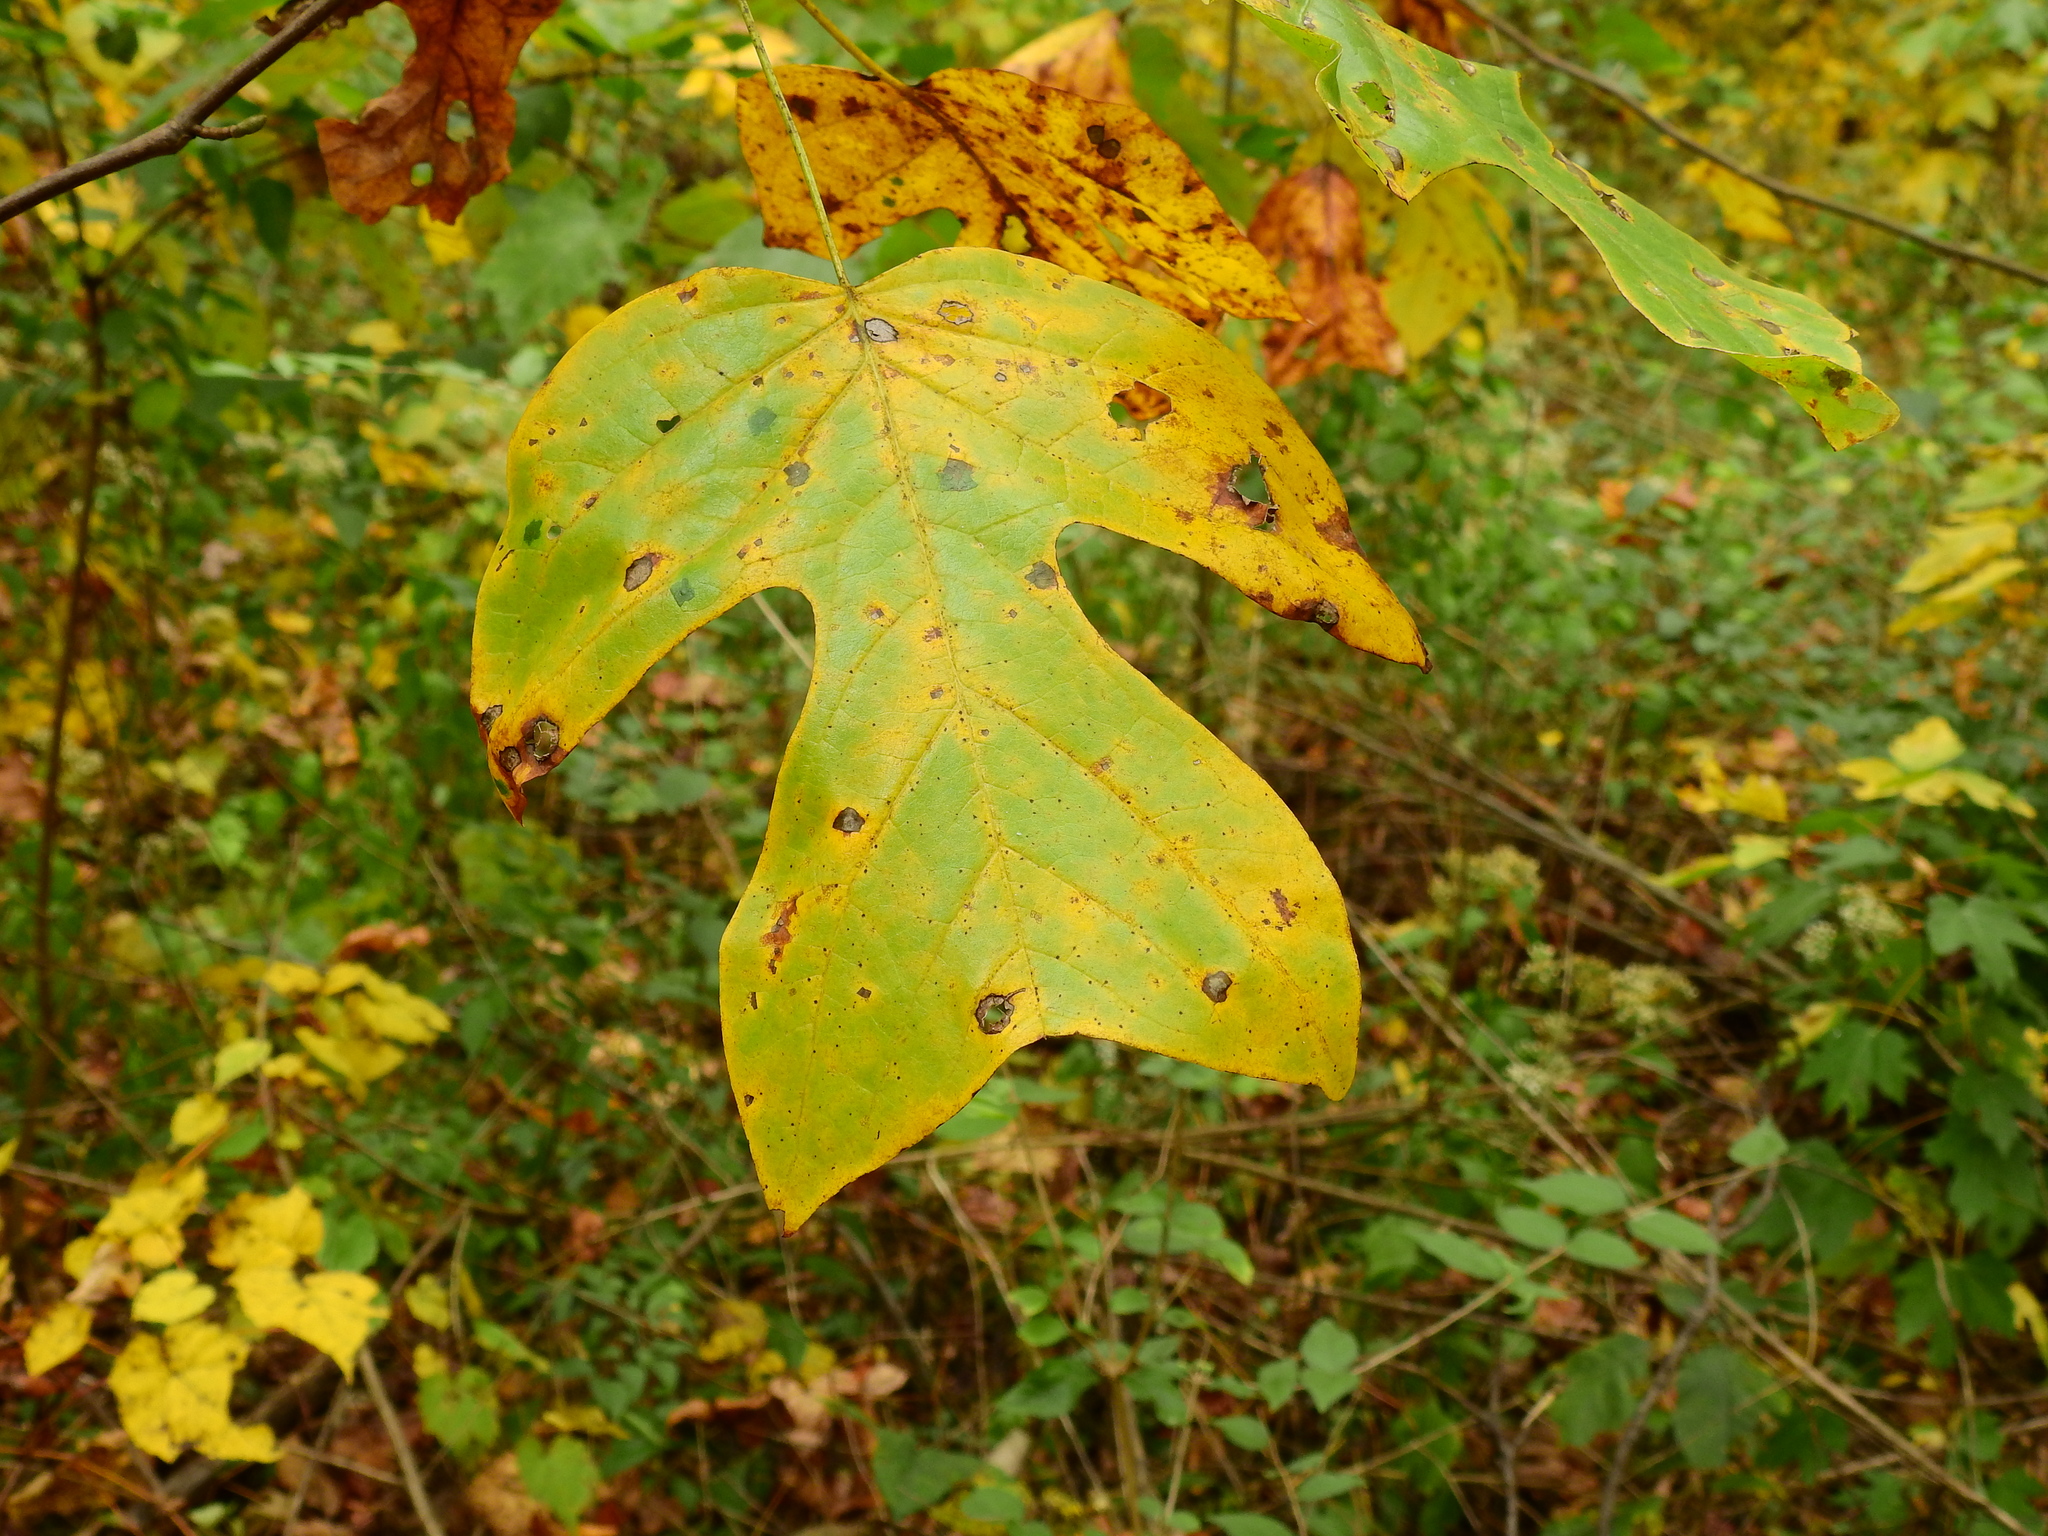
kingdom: Animalia
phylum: Arthropoda
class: Insecta
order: Diptera
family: Cecidomyiidae
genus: Resseliella
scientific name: Resseliella liriodendri
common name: Tulip tree leaf spot gall midge
